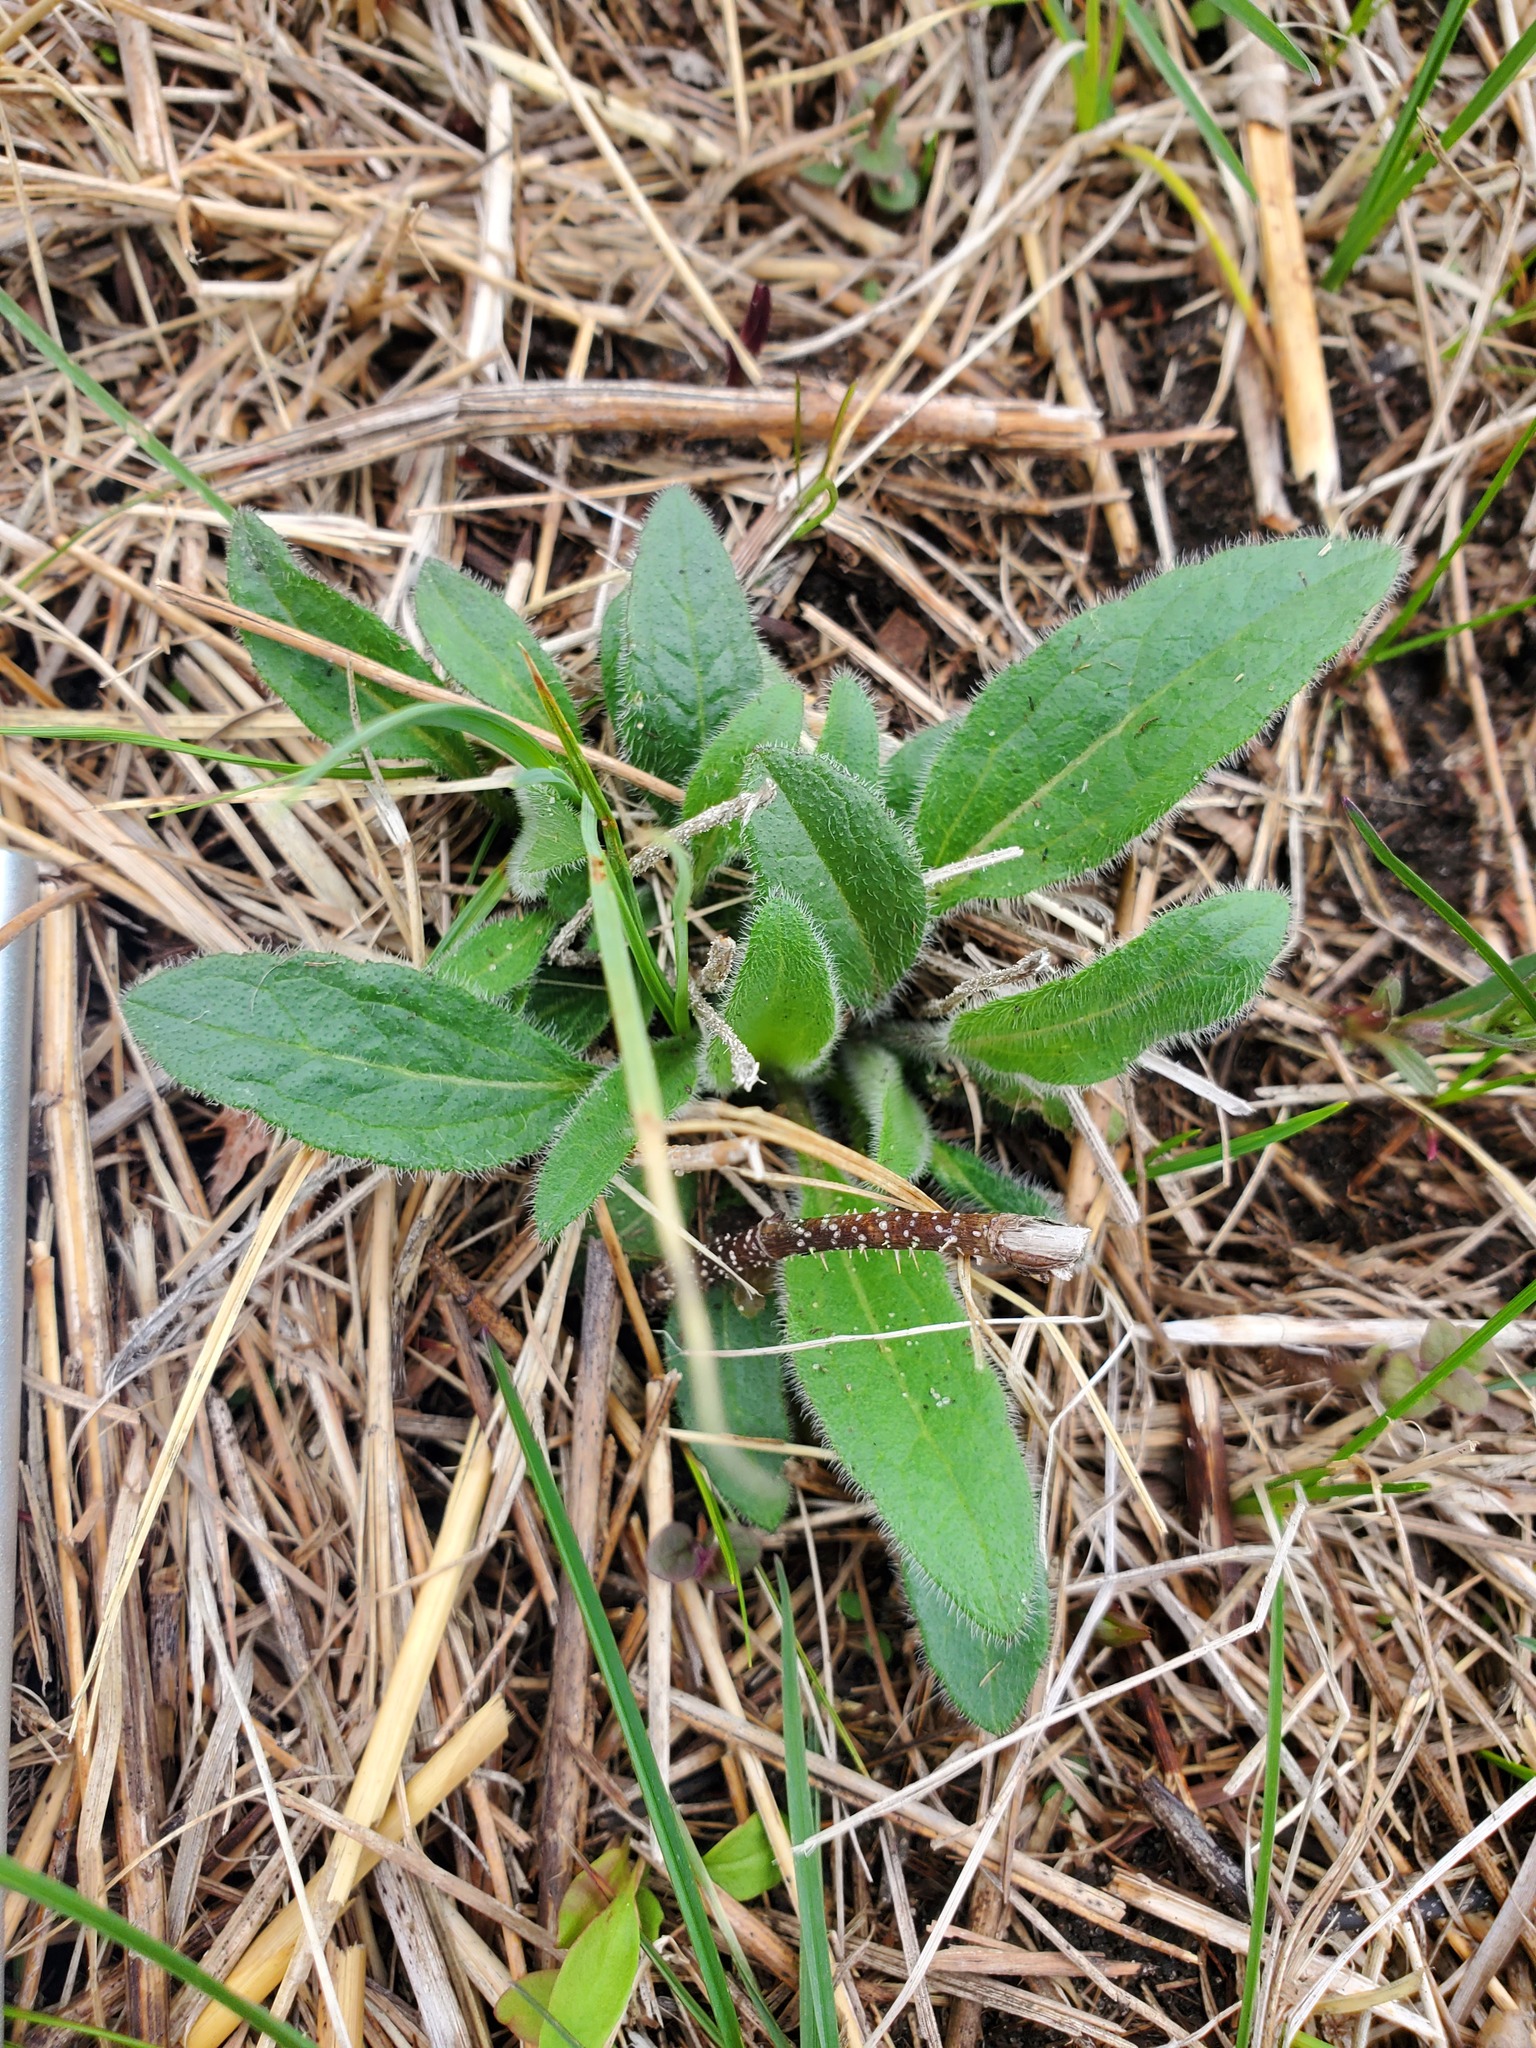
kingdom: Plantae
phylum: Tracheophyta
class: Magnoliopsida
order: Asterales
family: Asteraceae
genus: Rudbeckia
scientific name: Rudbeckia hirta
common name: Black-eyed-susan
